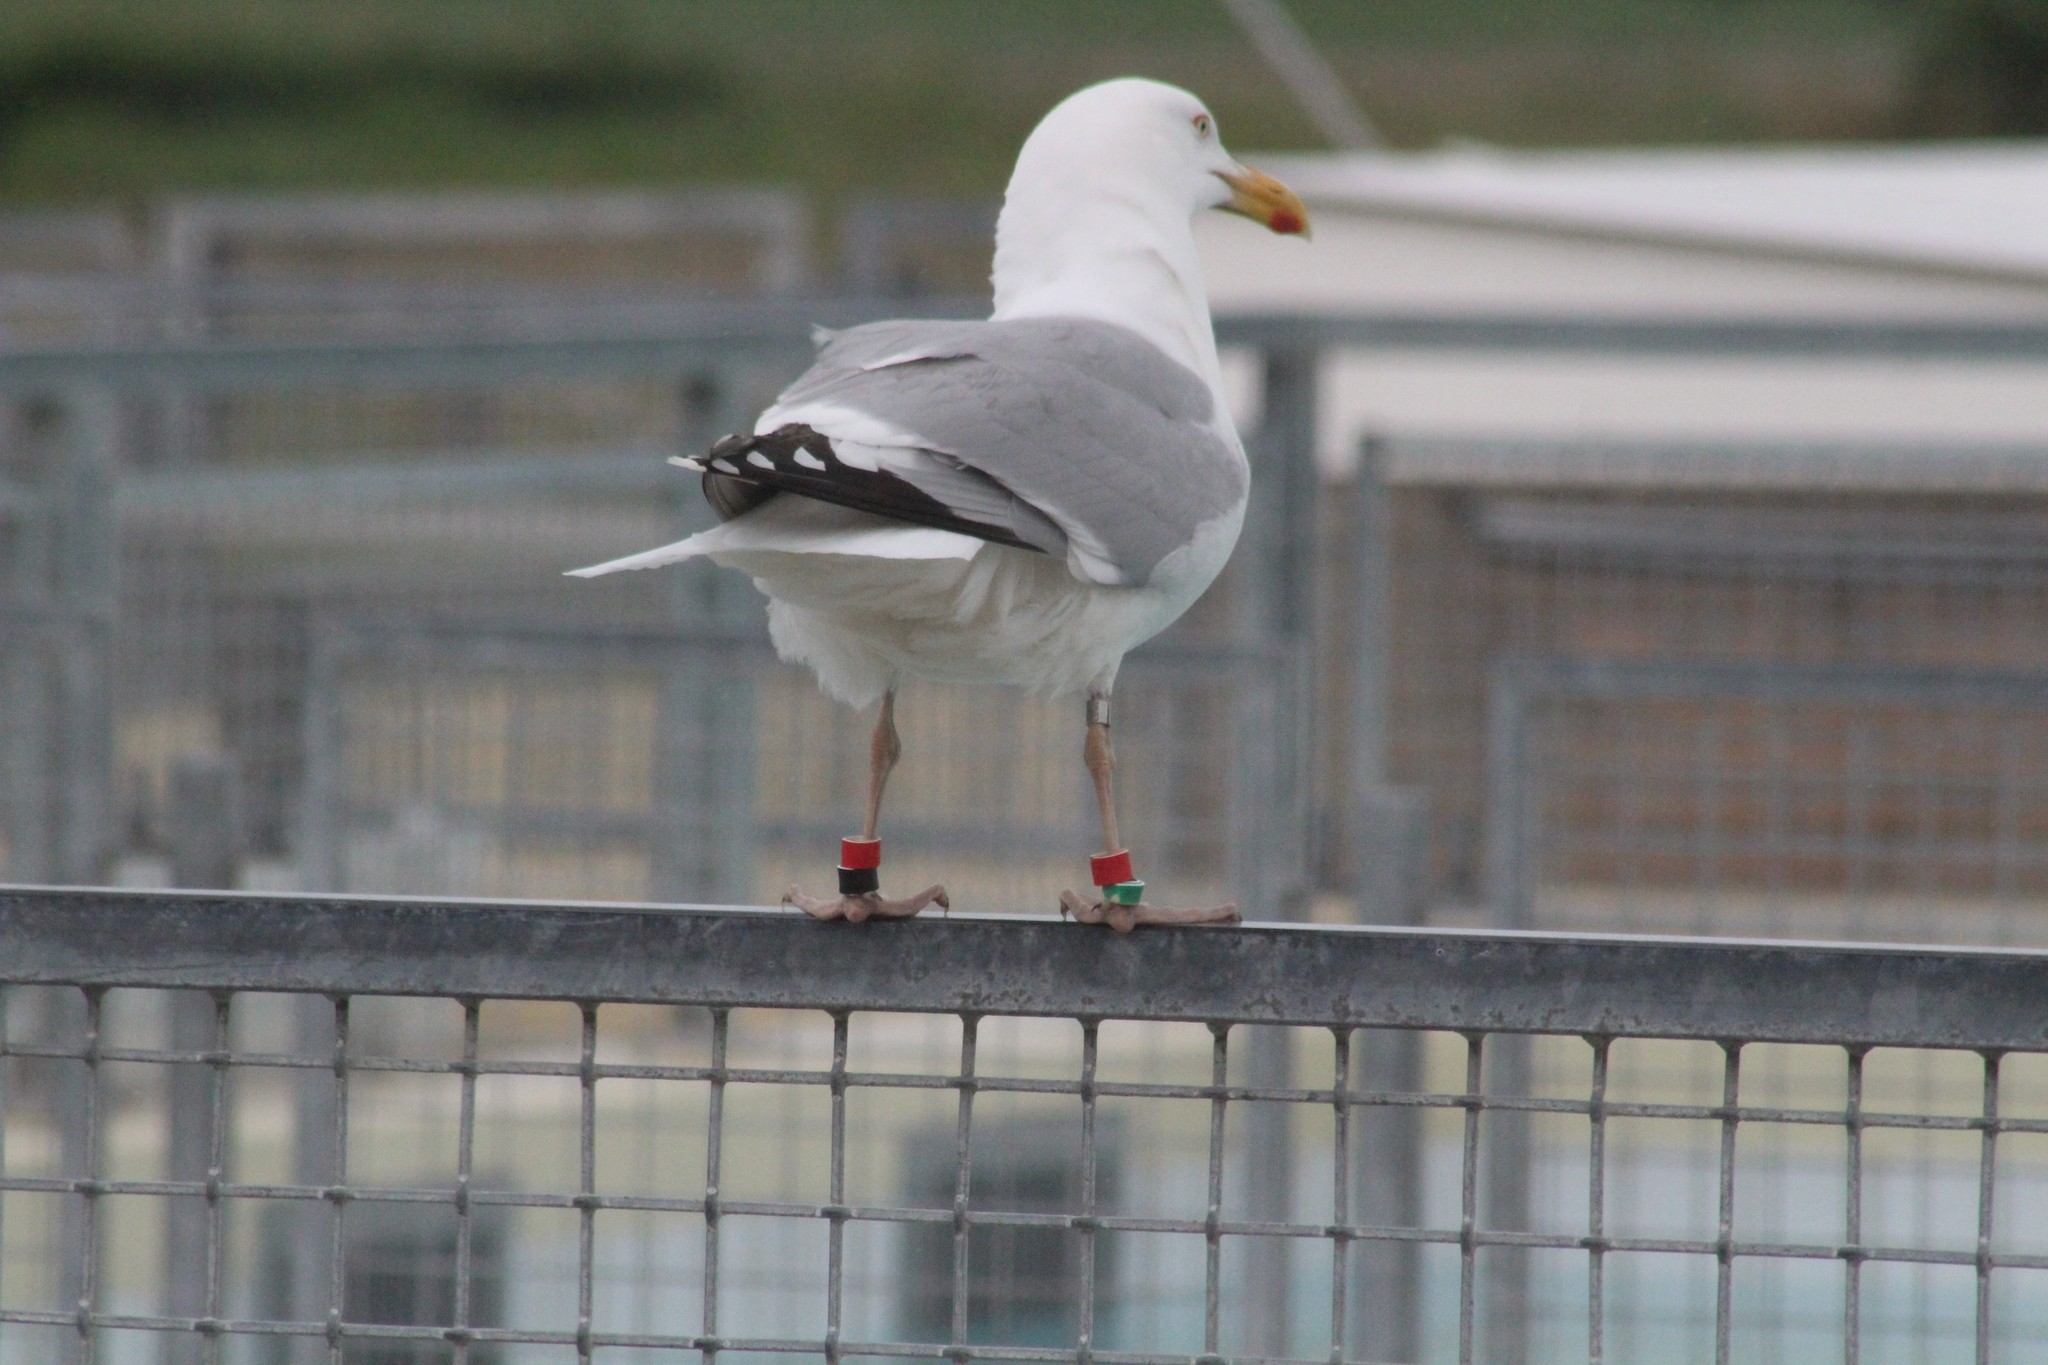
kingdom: Animalia
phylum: Chordata
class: Aves
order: Charadriiformes
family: Laridae
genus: Larus
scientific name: Larus argentatus
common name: Herring gull
